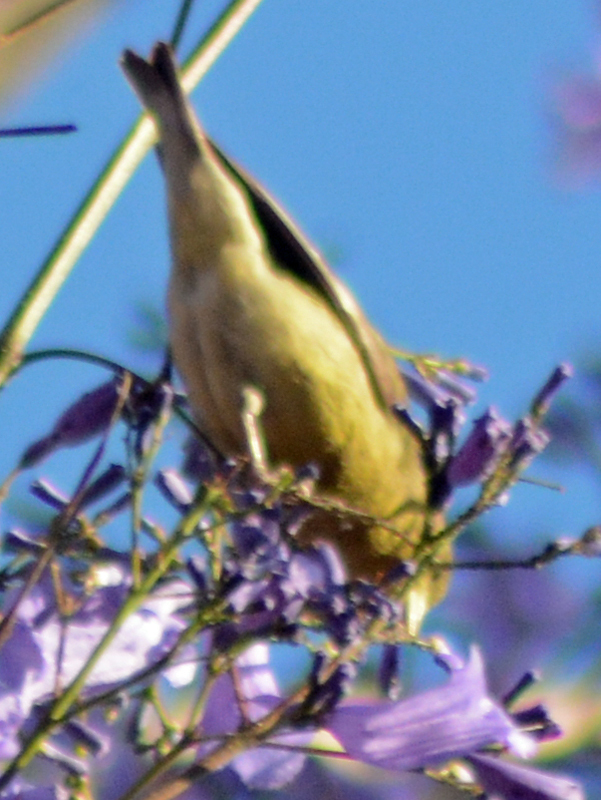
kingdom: Animalia
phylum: Chordata
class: Aves
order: Passeriformes
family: Fringillidae
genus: Spinus
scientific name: Spinus psaltria
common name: Lesser goldfinch
